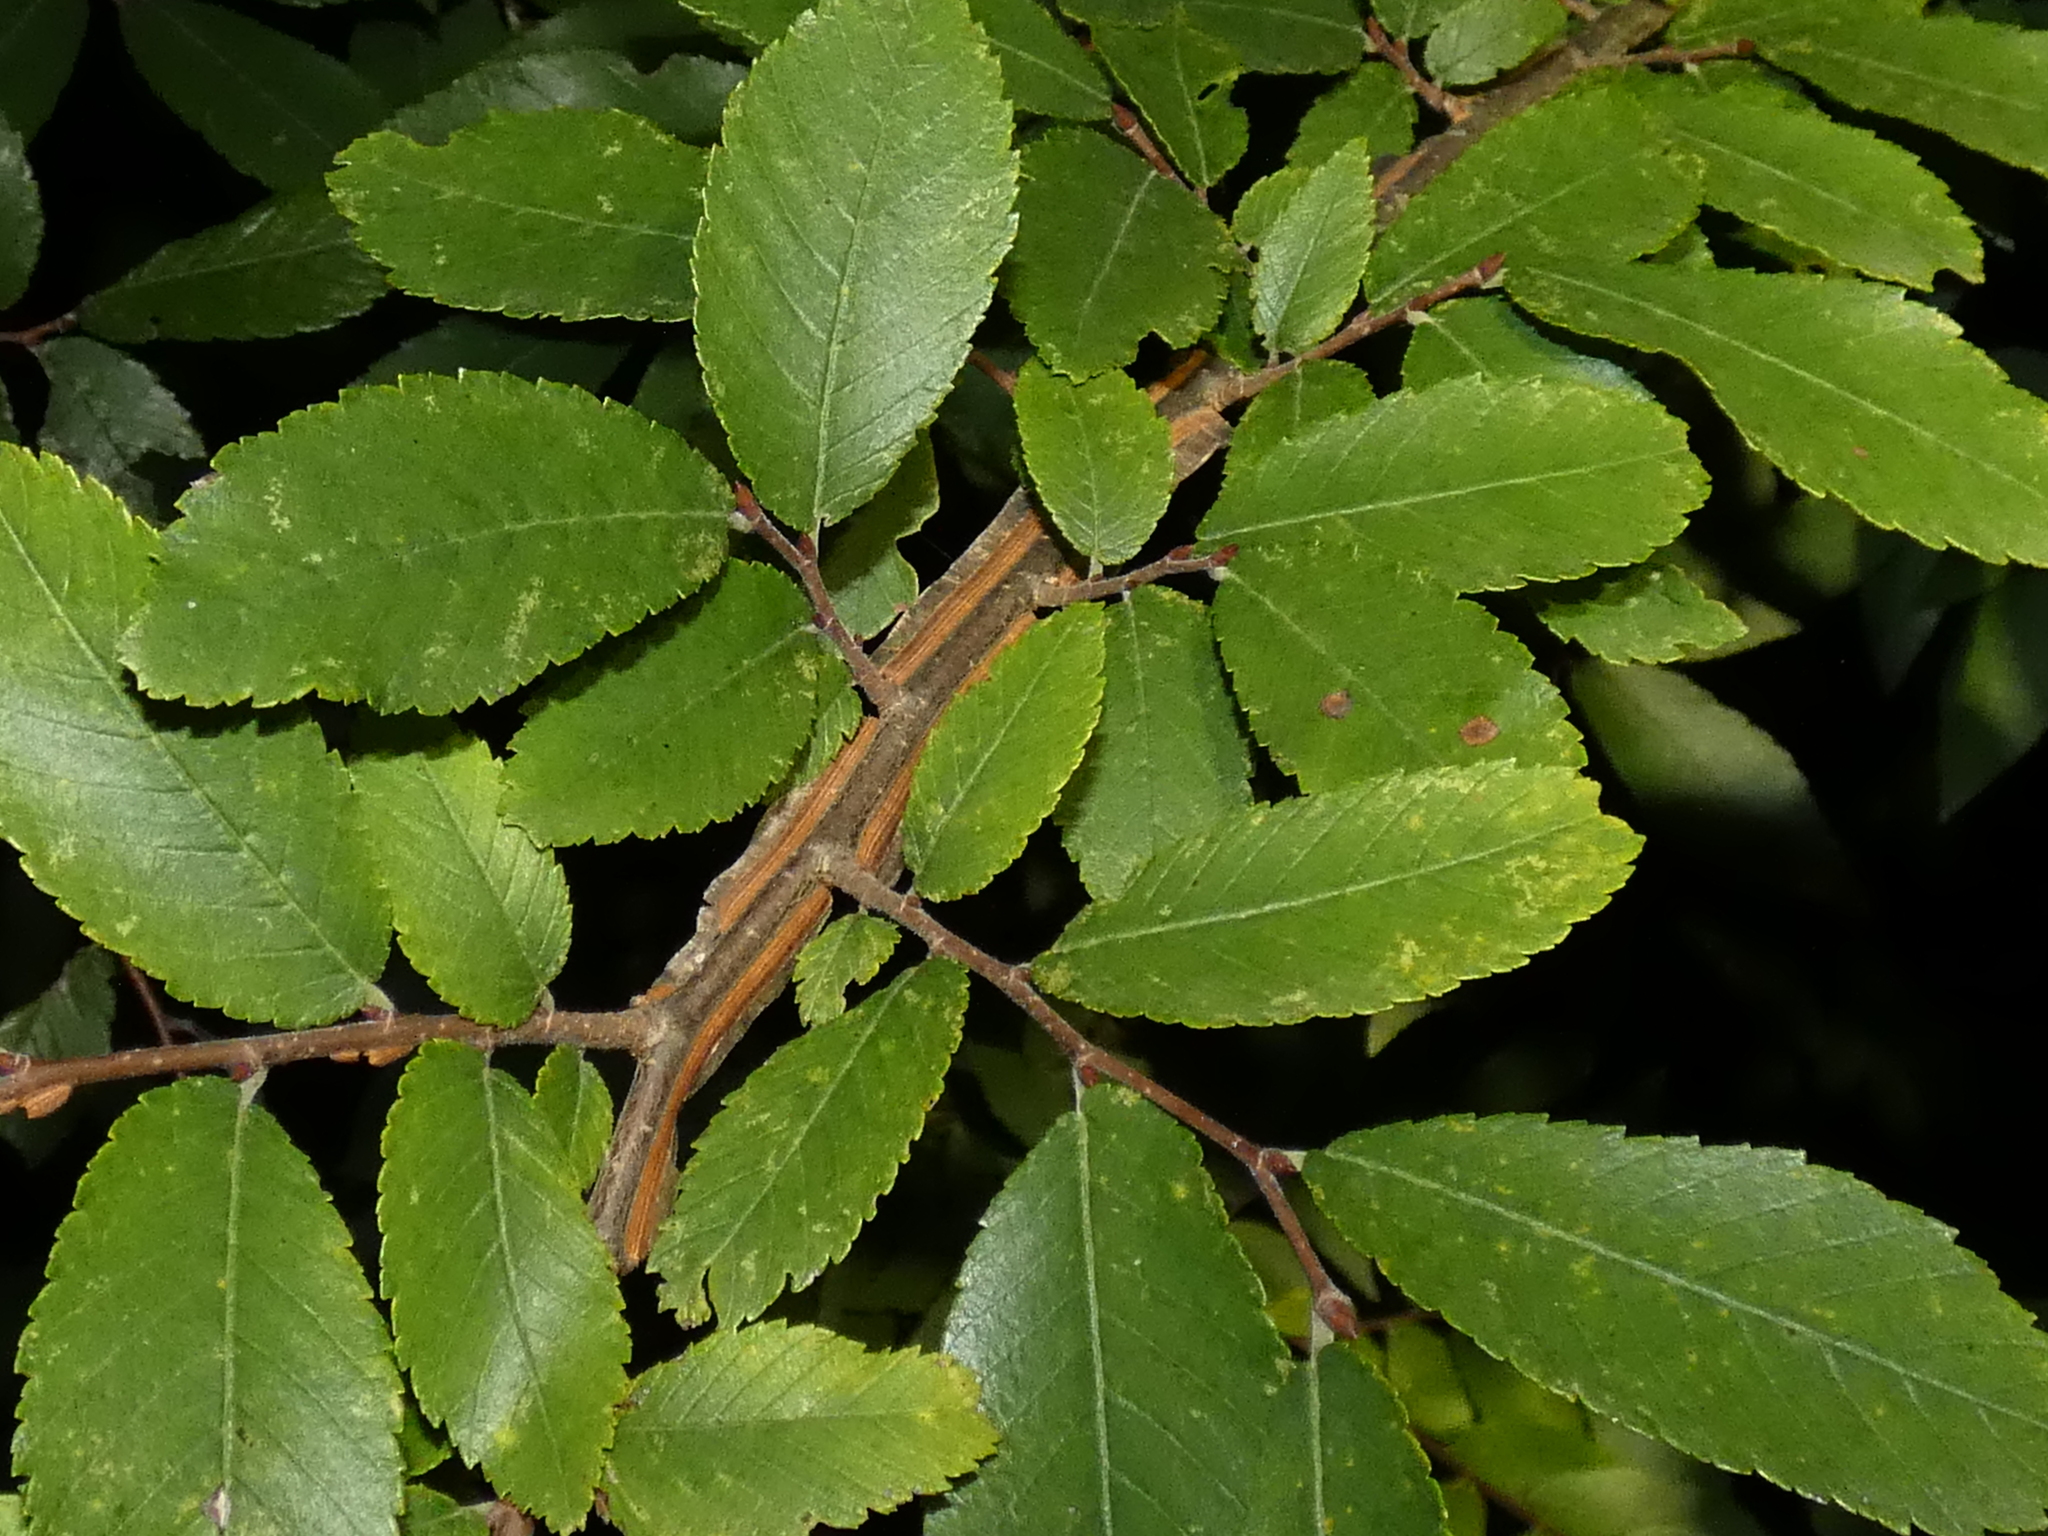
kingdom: Plantae
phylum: Tracheophyta
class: Magnoliopsida
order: Rosales
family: Ulmaceae
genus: Ulmus
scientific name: Ulmus alata
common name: Winged elm
